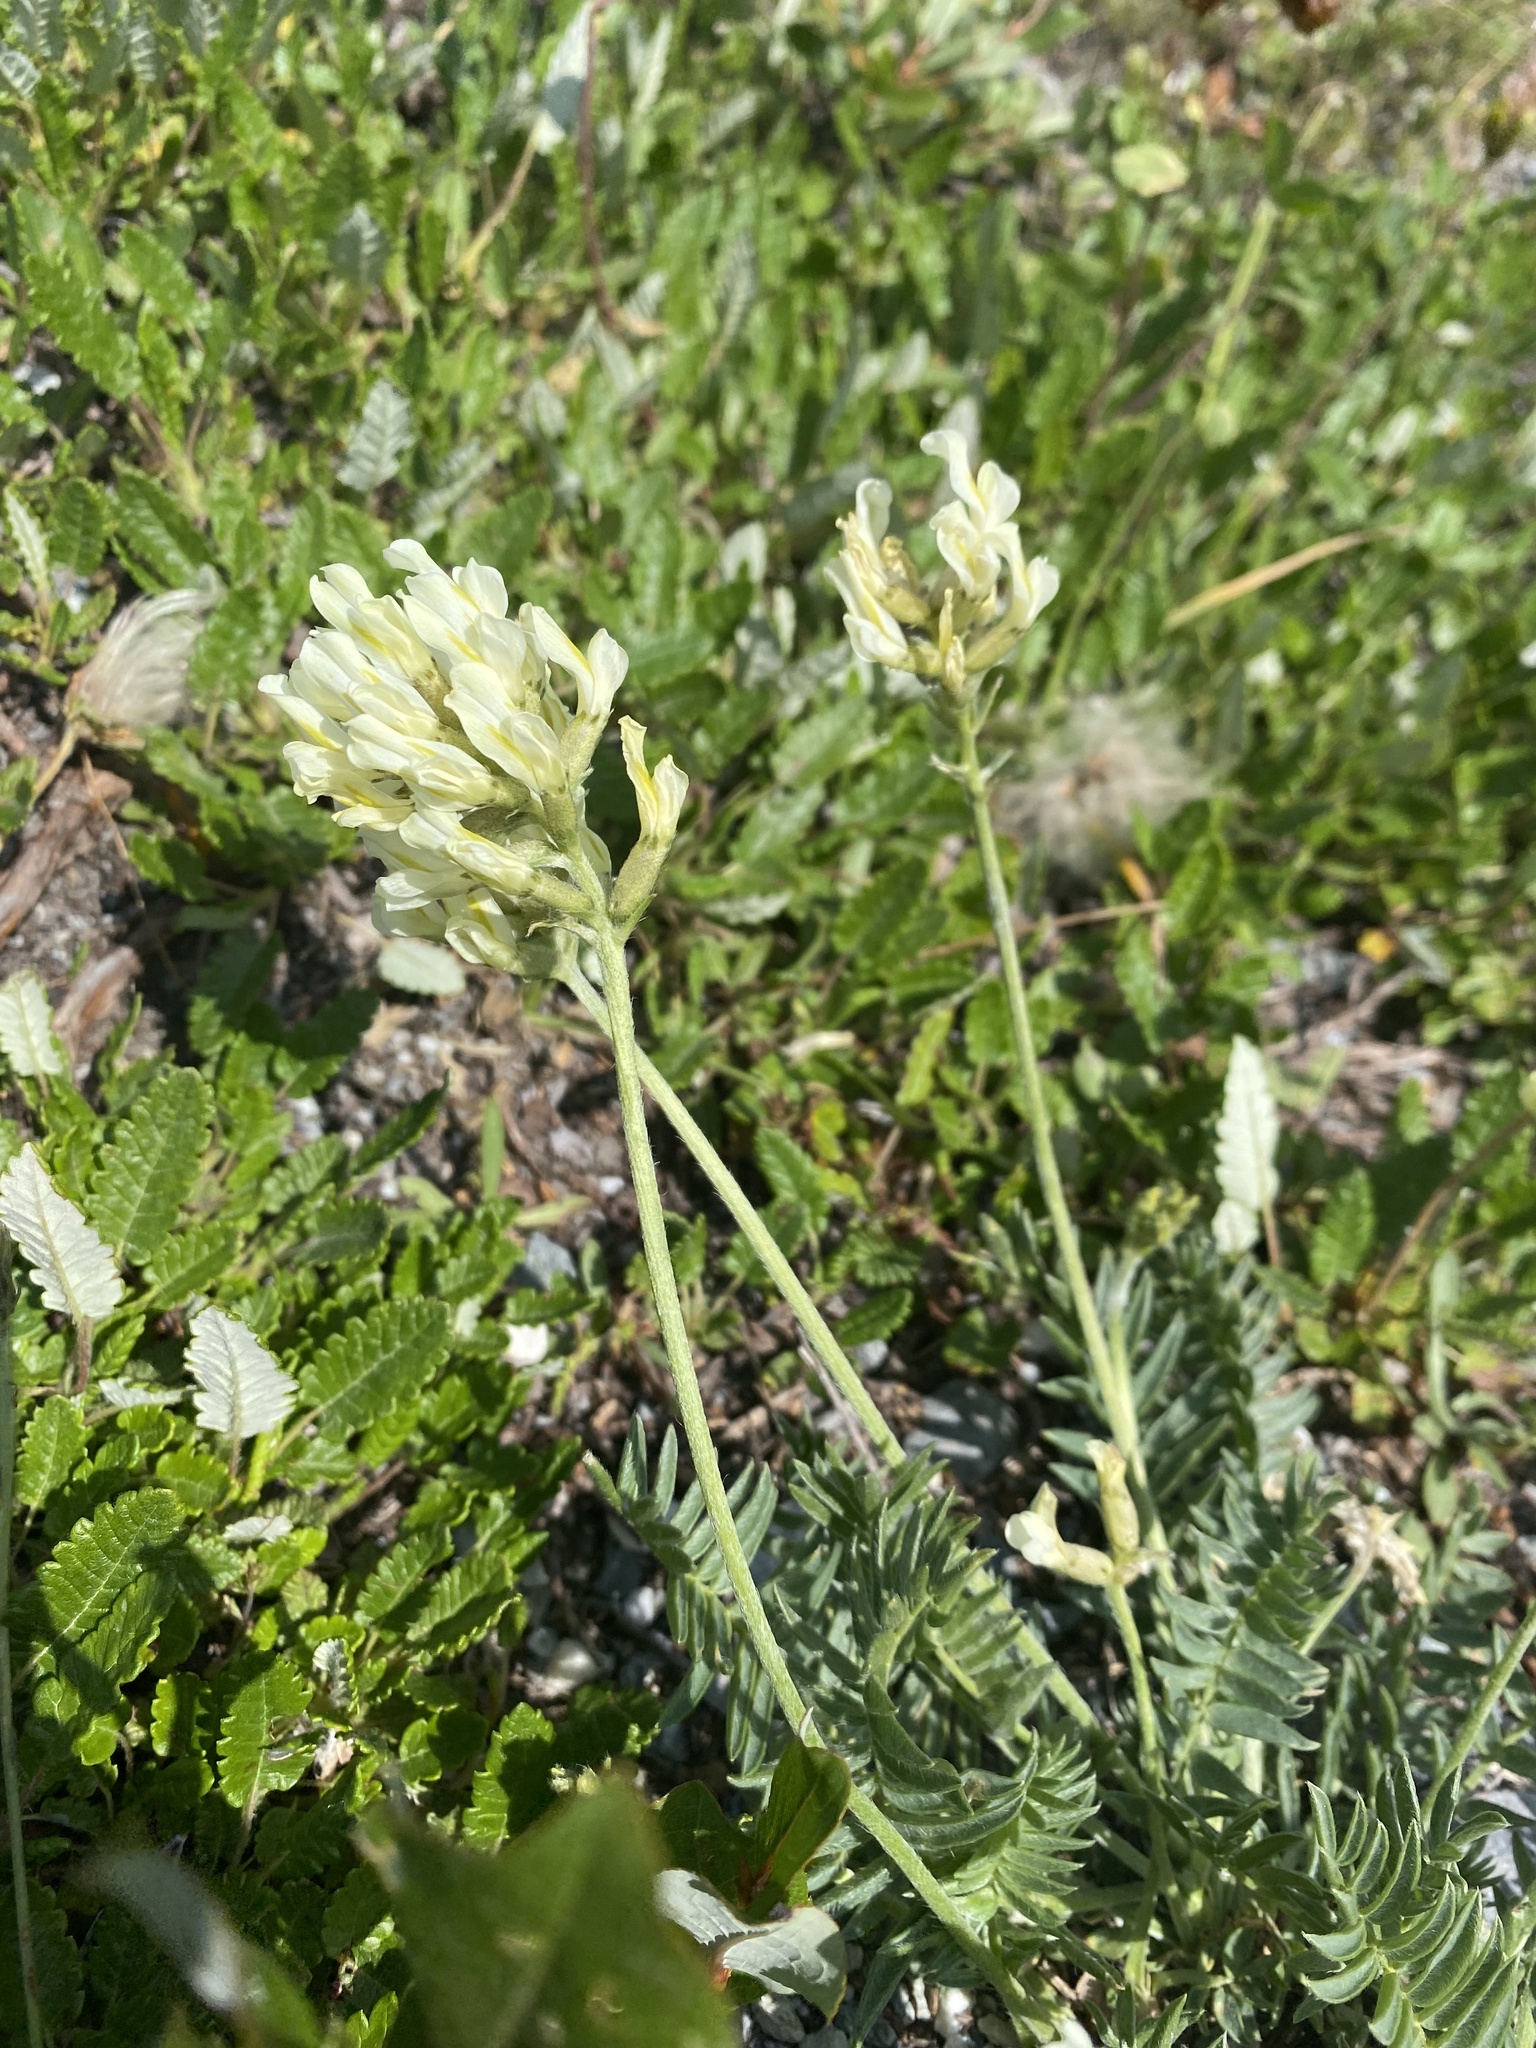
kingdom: Plantae
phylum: Tracheophyta
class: Magnoliopsida
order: Fabales
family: Fabaceae
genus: Oxytropis
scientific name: Oxytropis campestris
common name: Field locoweed
